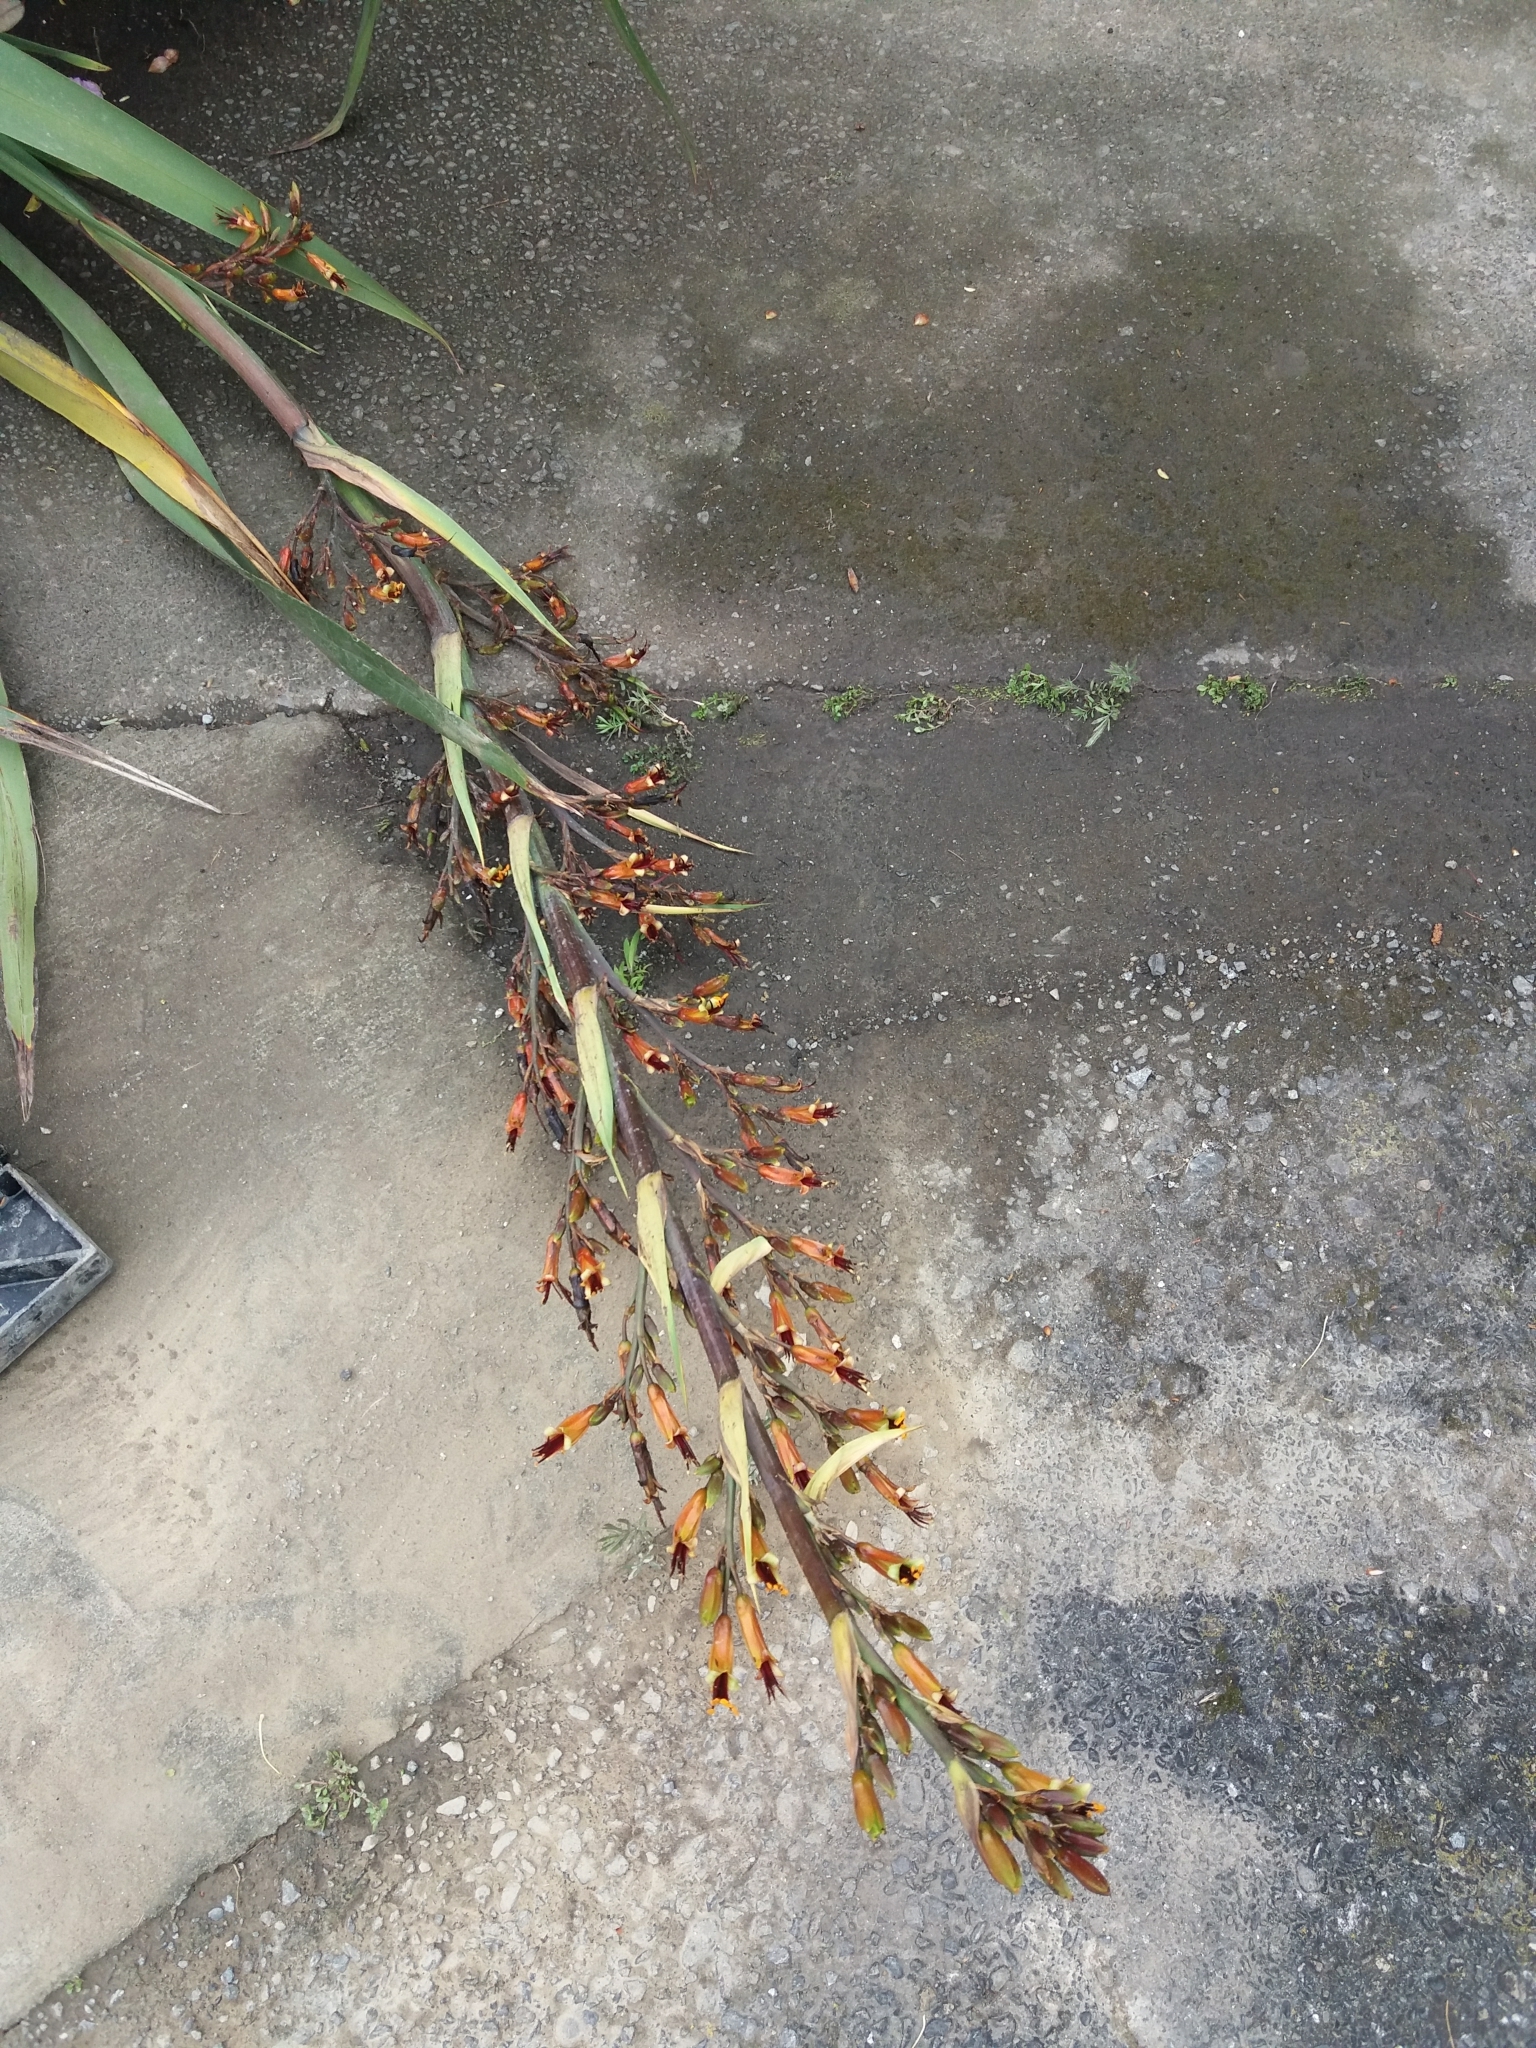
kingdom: Plantae
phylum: Tracheophyta
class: Liliopsida
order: Asparagales
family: Asphodelaceae
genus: Phormium
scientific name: Phormium colensoi
